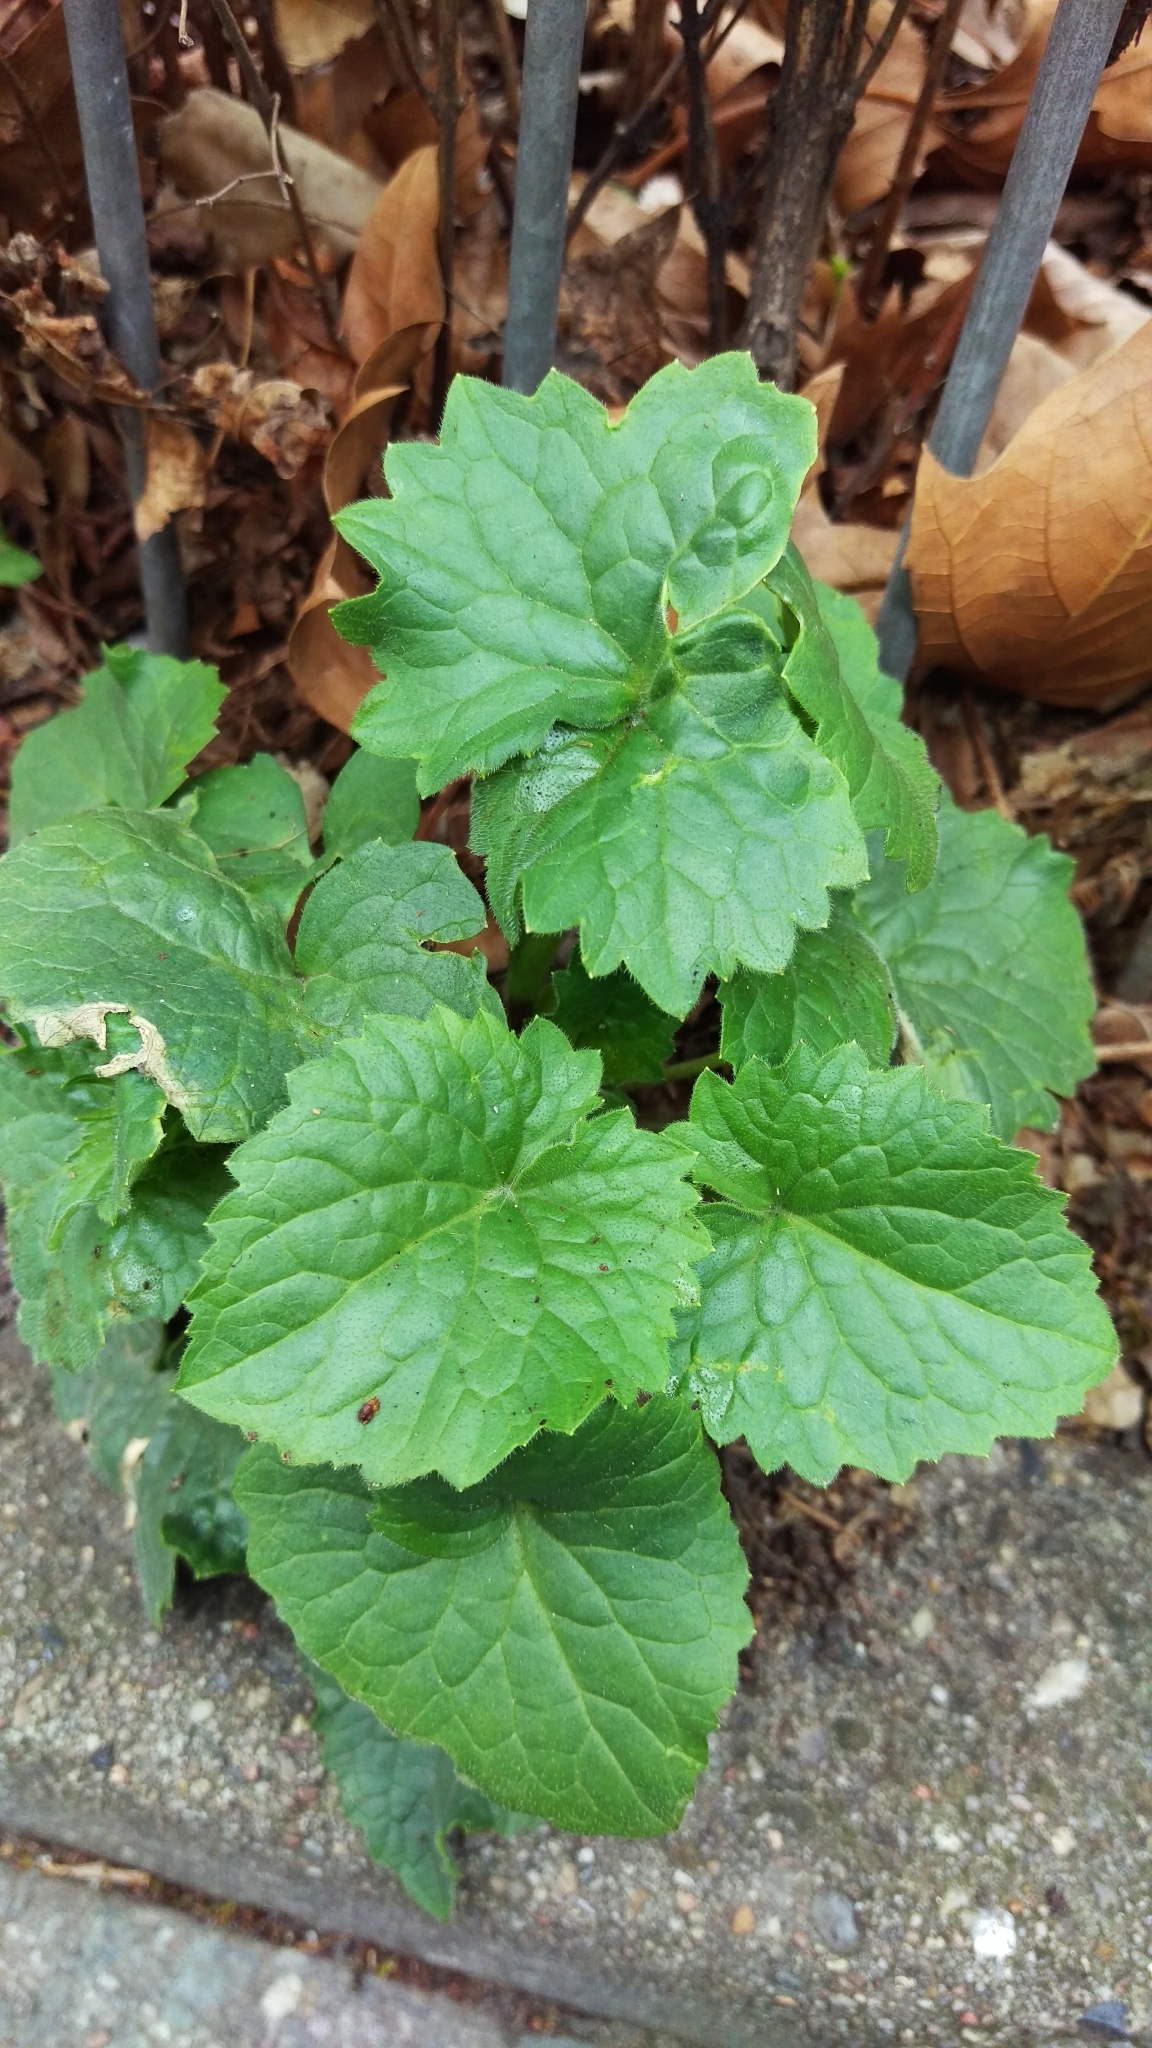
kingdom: Plantae
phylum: Tracheophyta
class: Magnoliopsida
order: Brassicales
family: Brassicaceae
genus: Lunaria
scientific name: Lunaria annua
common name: Honesty
